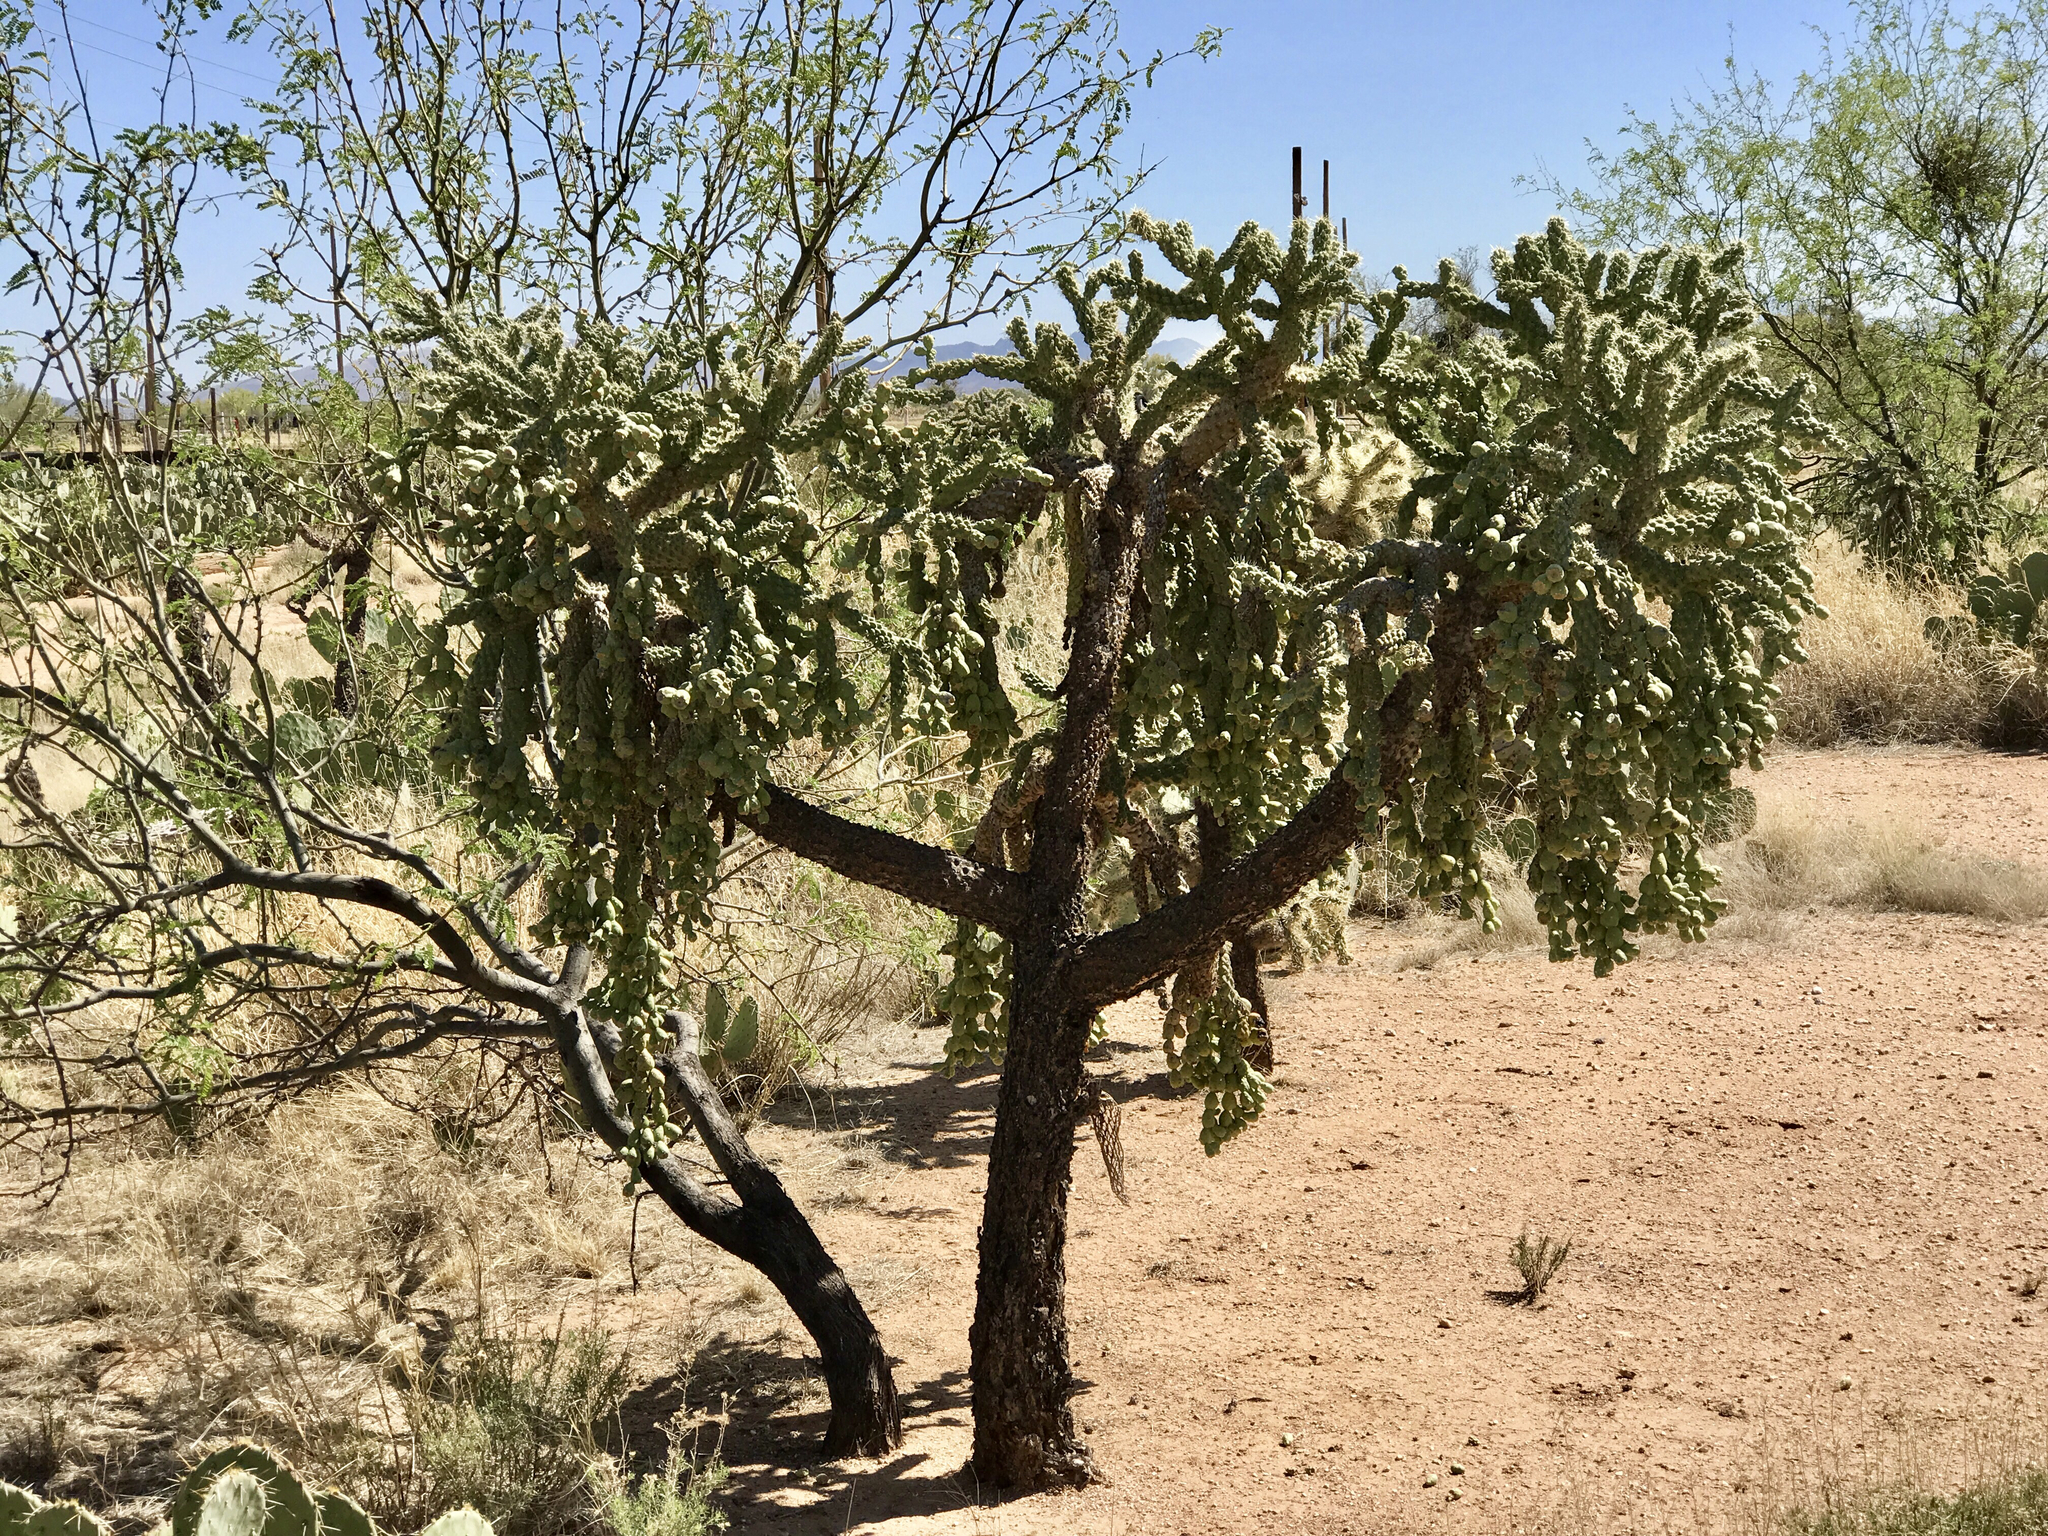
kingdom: Plantae
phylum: Tracheophyta
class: Magnoliopsida
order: Caryophyllales
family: Cactaceae
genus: Cylindropuntia
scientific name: Cylindropuntia fulgida
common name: Jumping cholla
